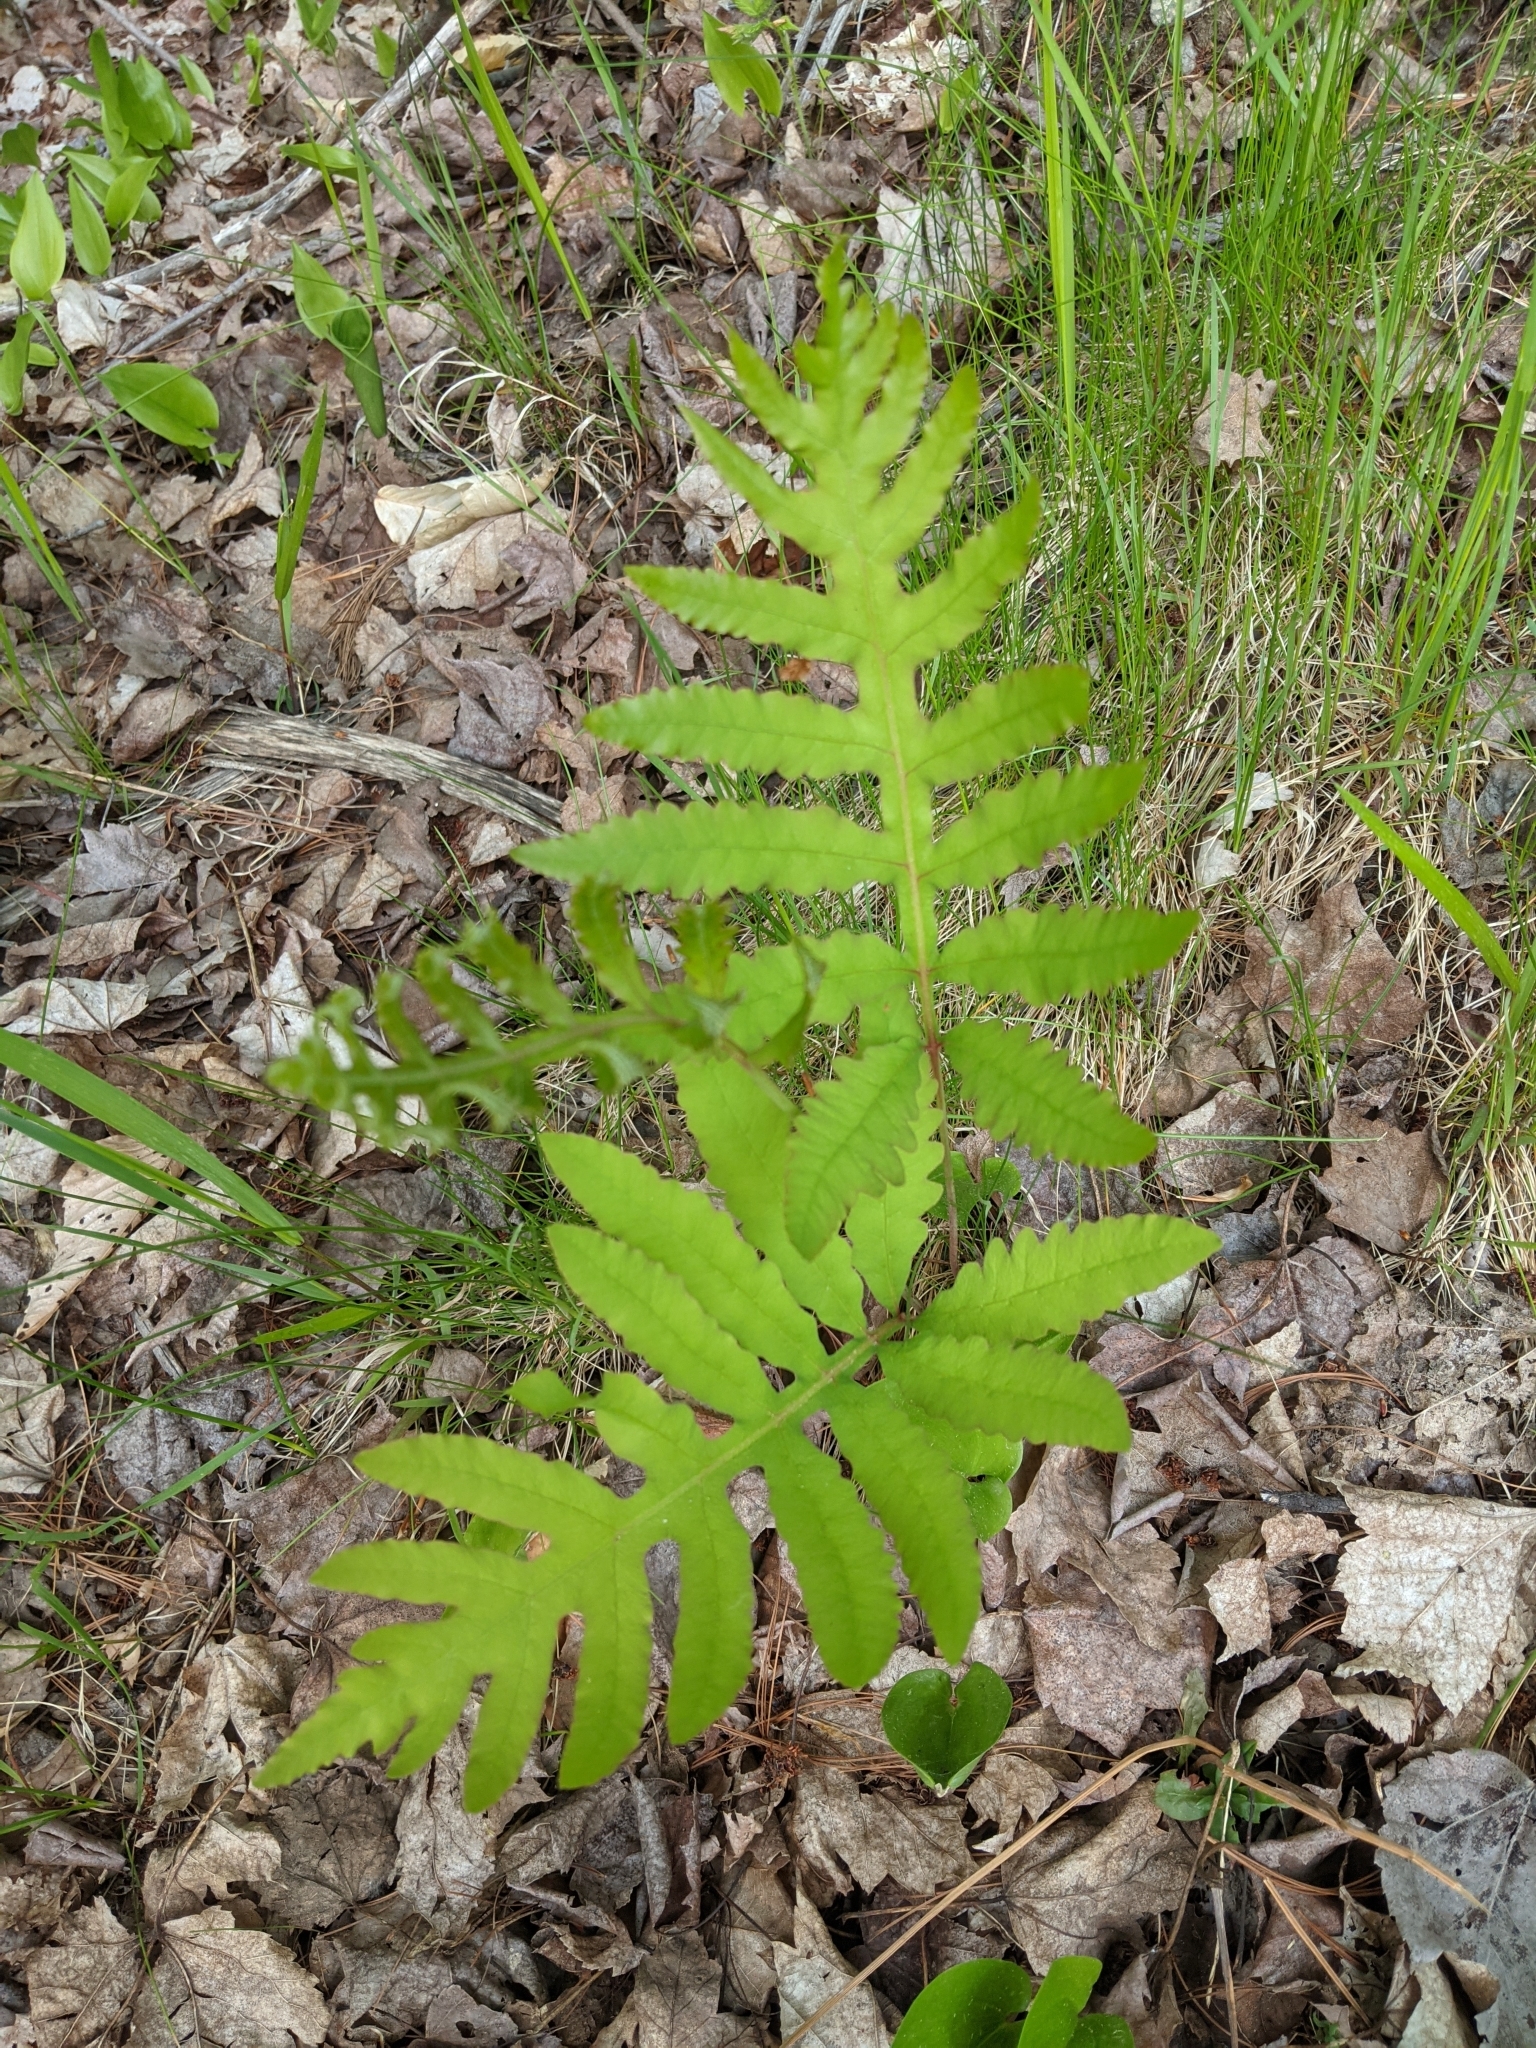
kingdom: Plantae
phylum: Tracheophyta
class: Polypodiopsida
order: Polypodiales
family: Onocleaceae
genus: Onoclea
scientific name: Onoclea sensibilis
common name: Sensitive fern
